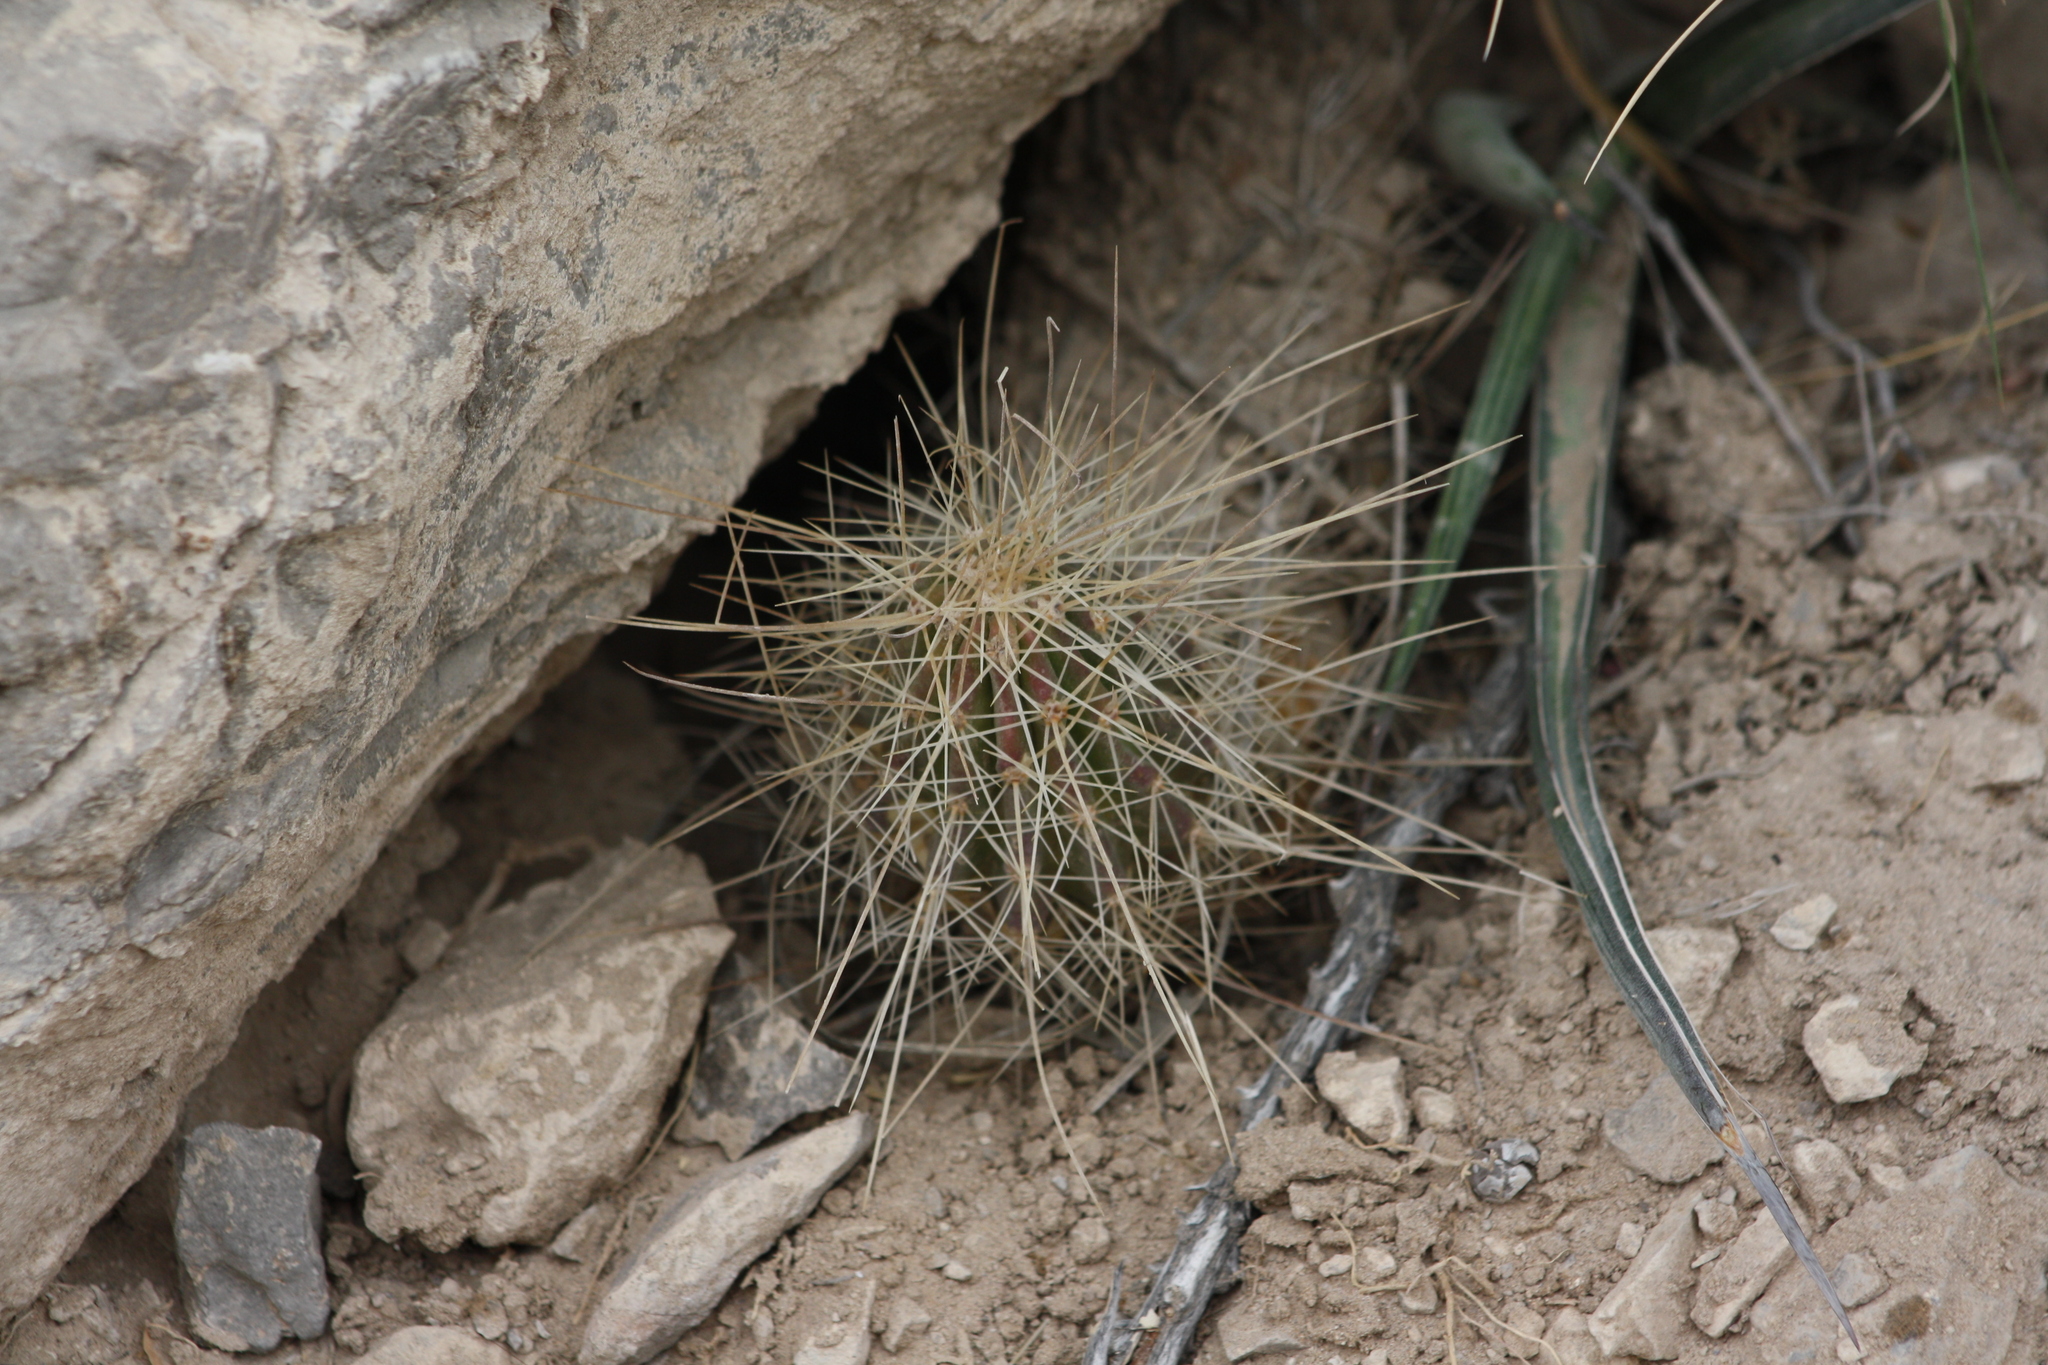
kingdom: Plantae
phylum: Tracheophyta
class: Magnoliopsida
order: Caryophyllales
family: Cactaceae
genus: Echinocereus
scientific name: Echinocereus stramineus
